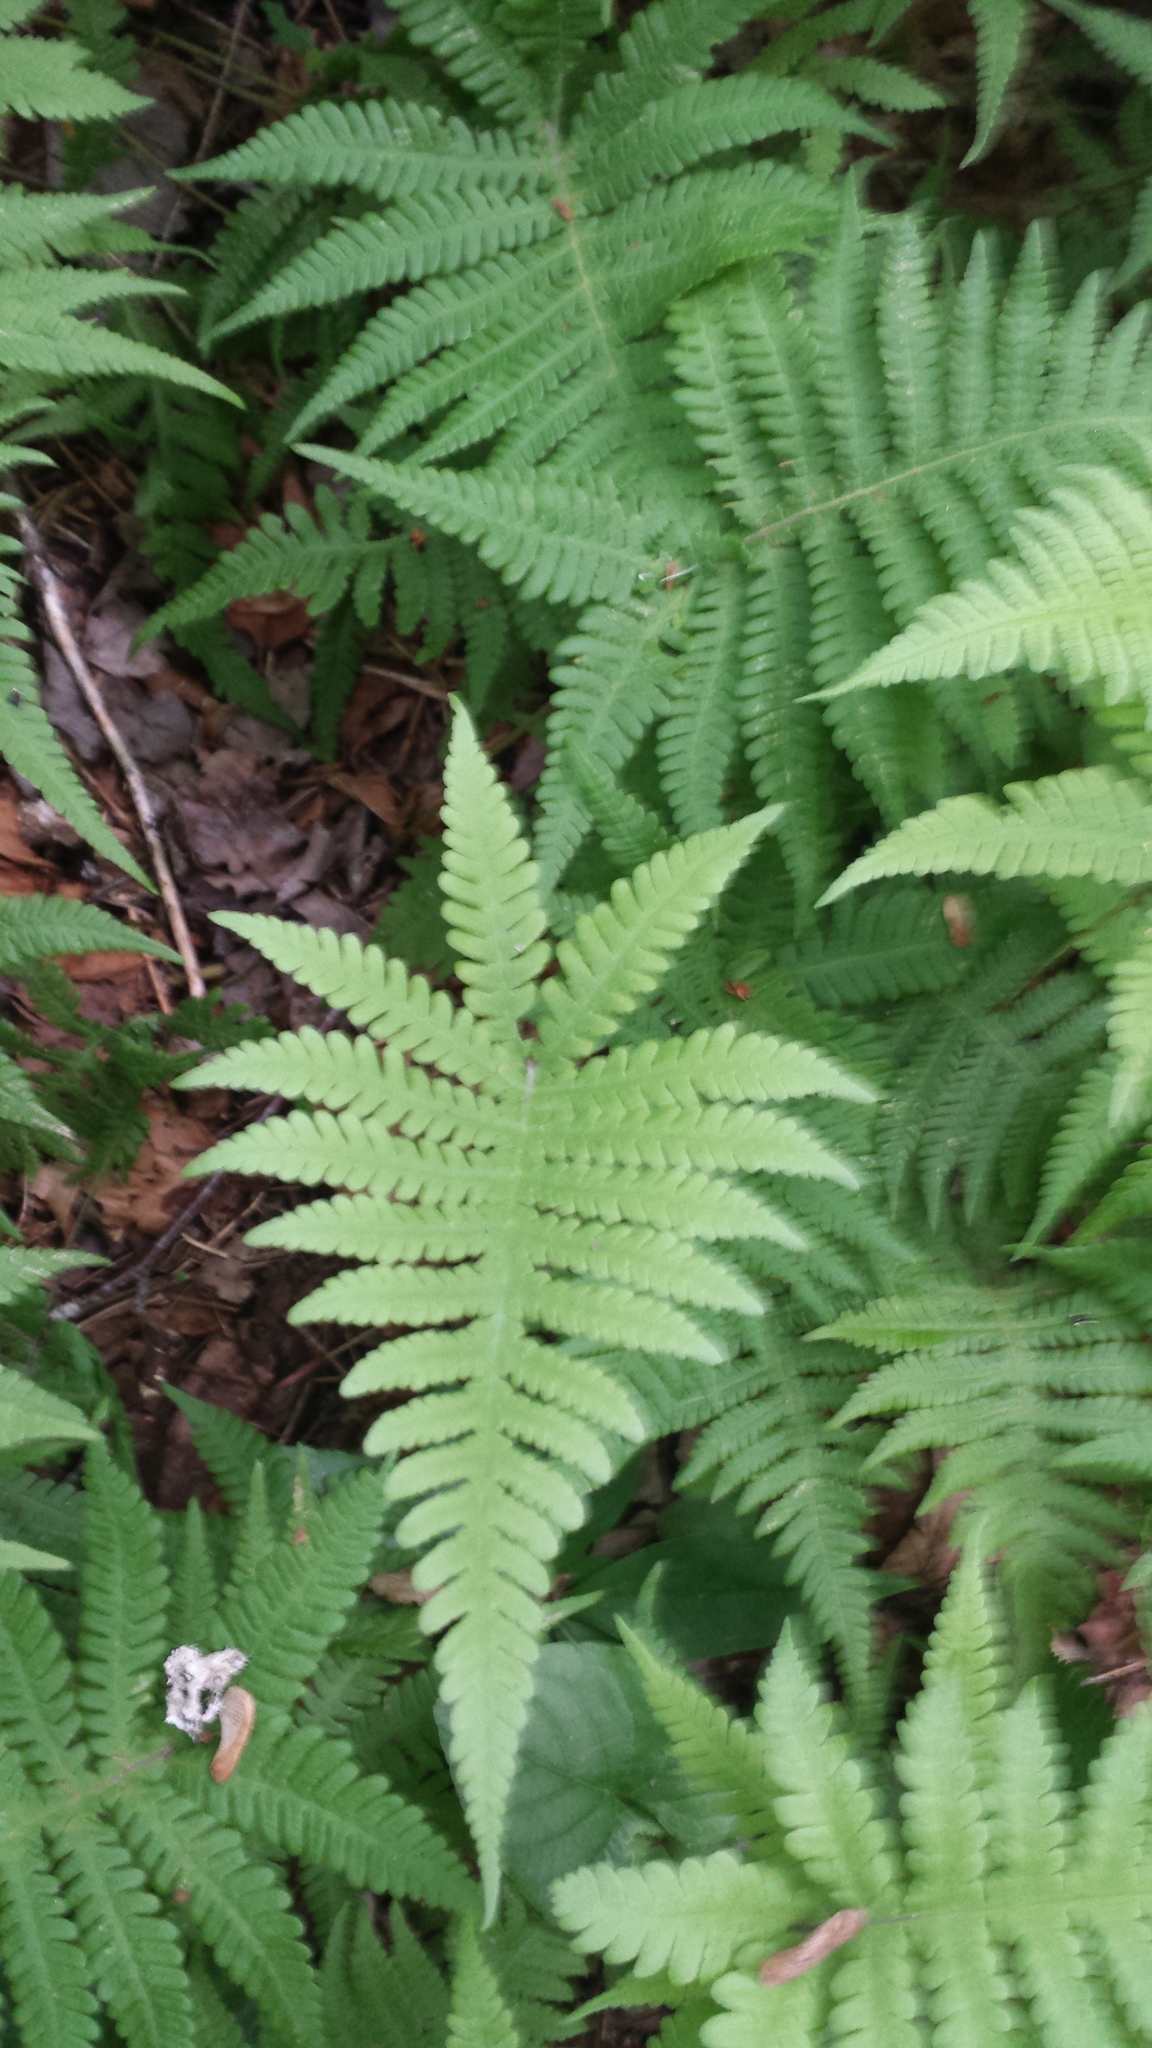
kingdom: Plantae
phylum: Tracheophyta
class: Polypodiopsida
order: Polypodiales
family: Thelypteridaceae
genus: Phegopteris
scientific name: Phegopteris connectilis
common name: Beech fern
